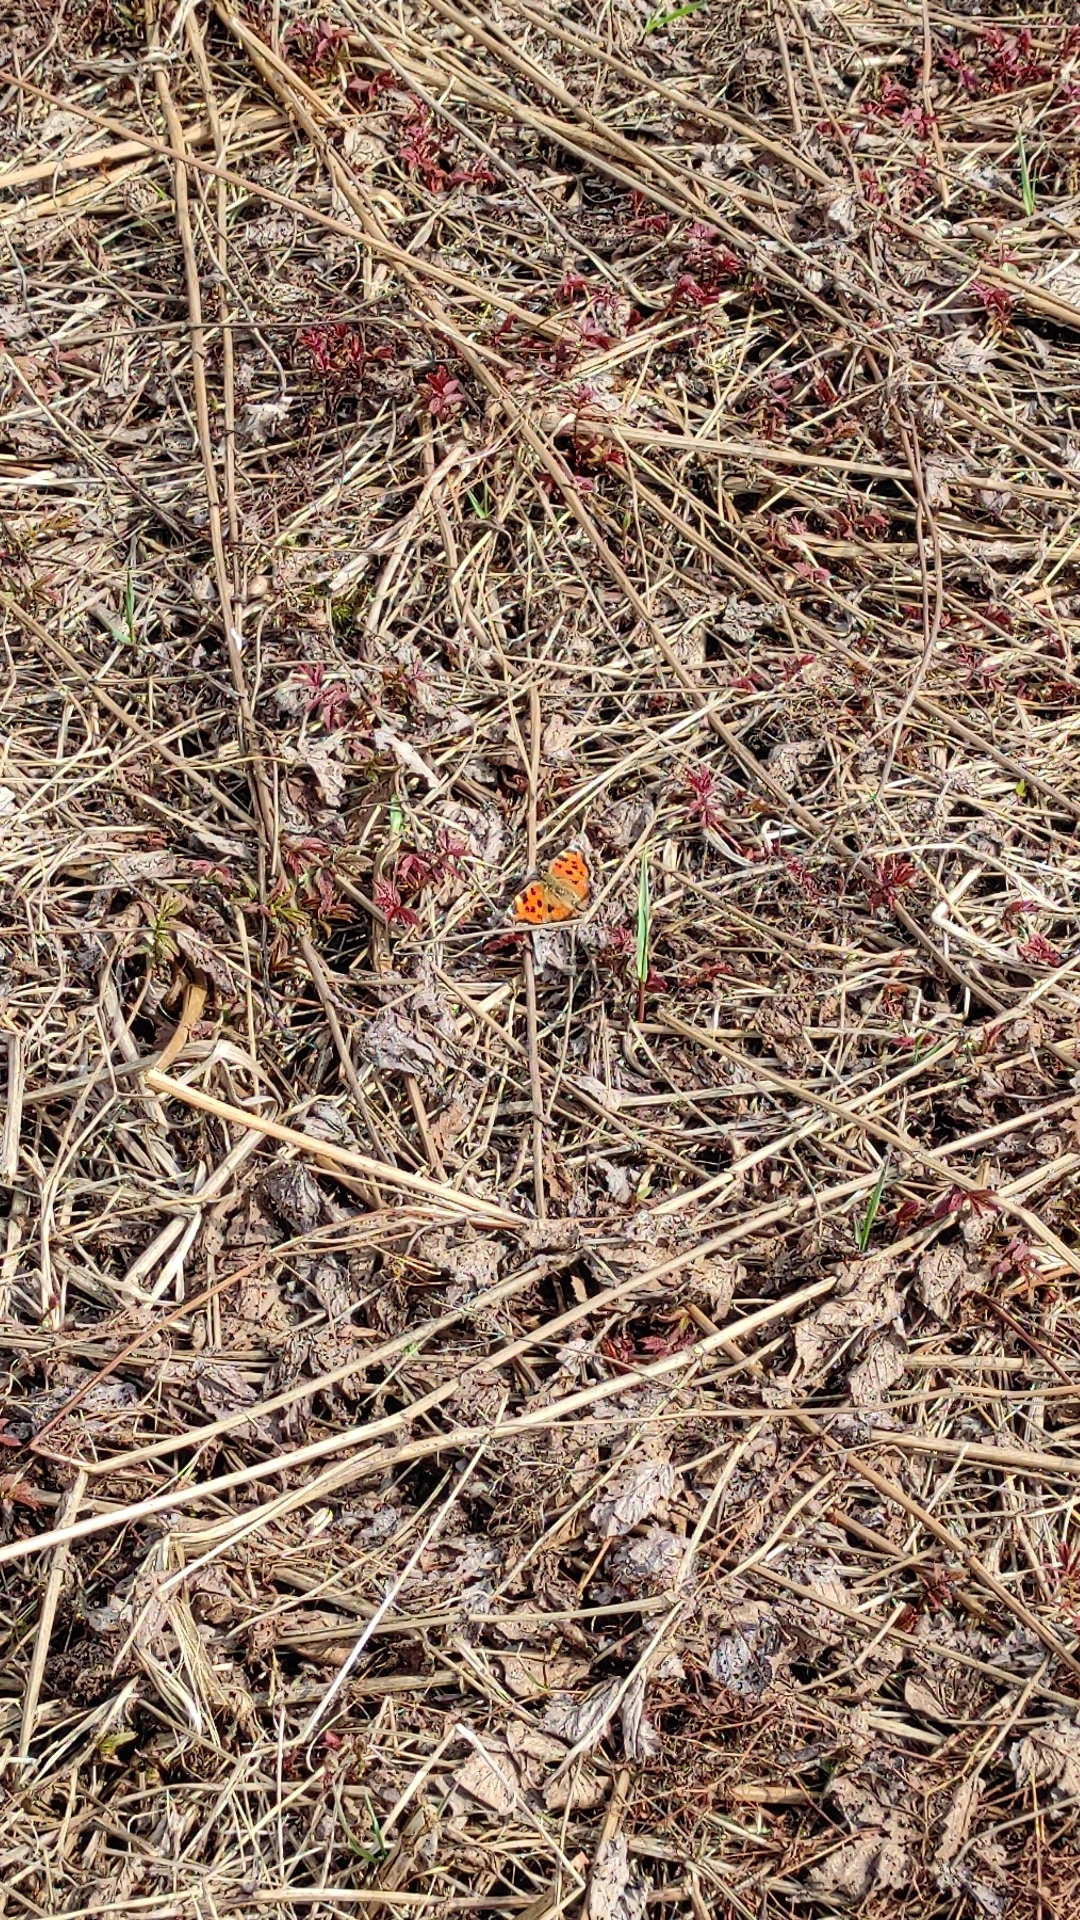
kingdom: Animalia
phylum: Arthropoda
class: Insecta
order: Lepidoptera
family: Nymphalidae
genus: Nymphalis
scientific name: Nymphalis xanthomelas
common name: Scarce tortoiseshell
